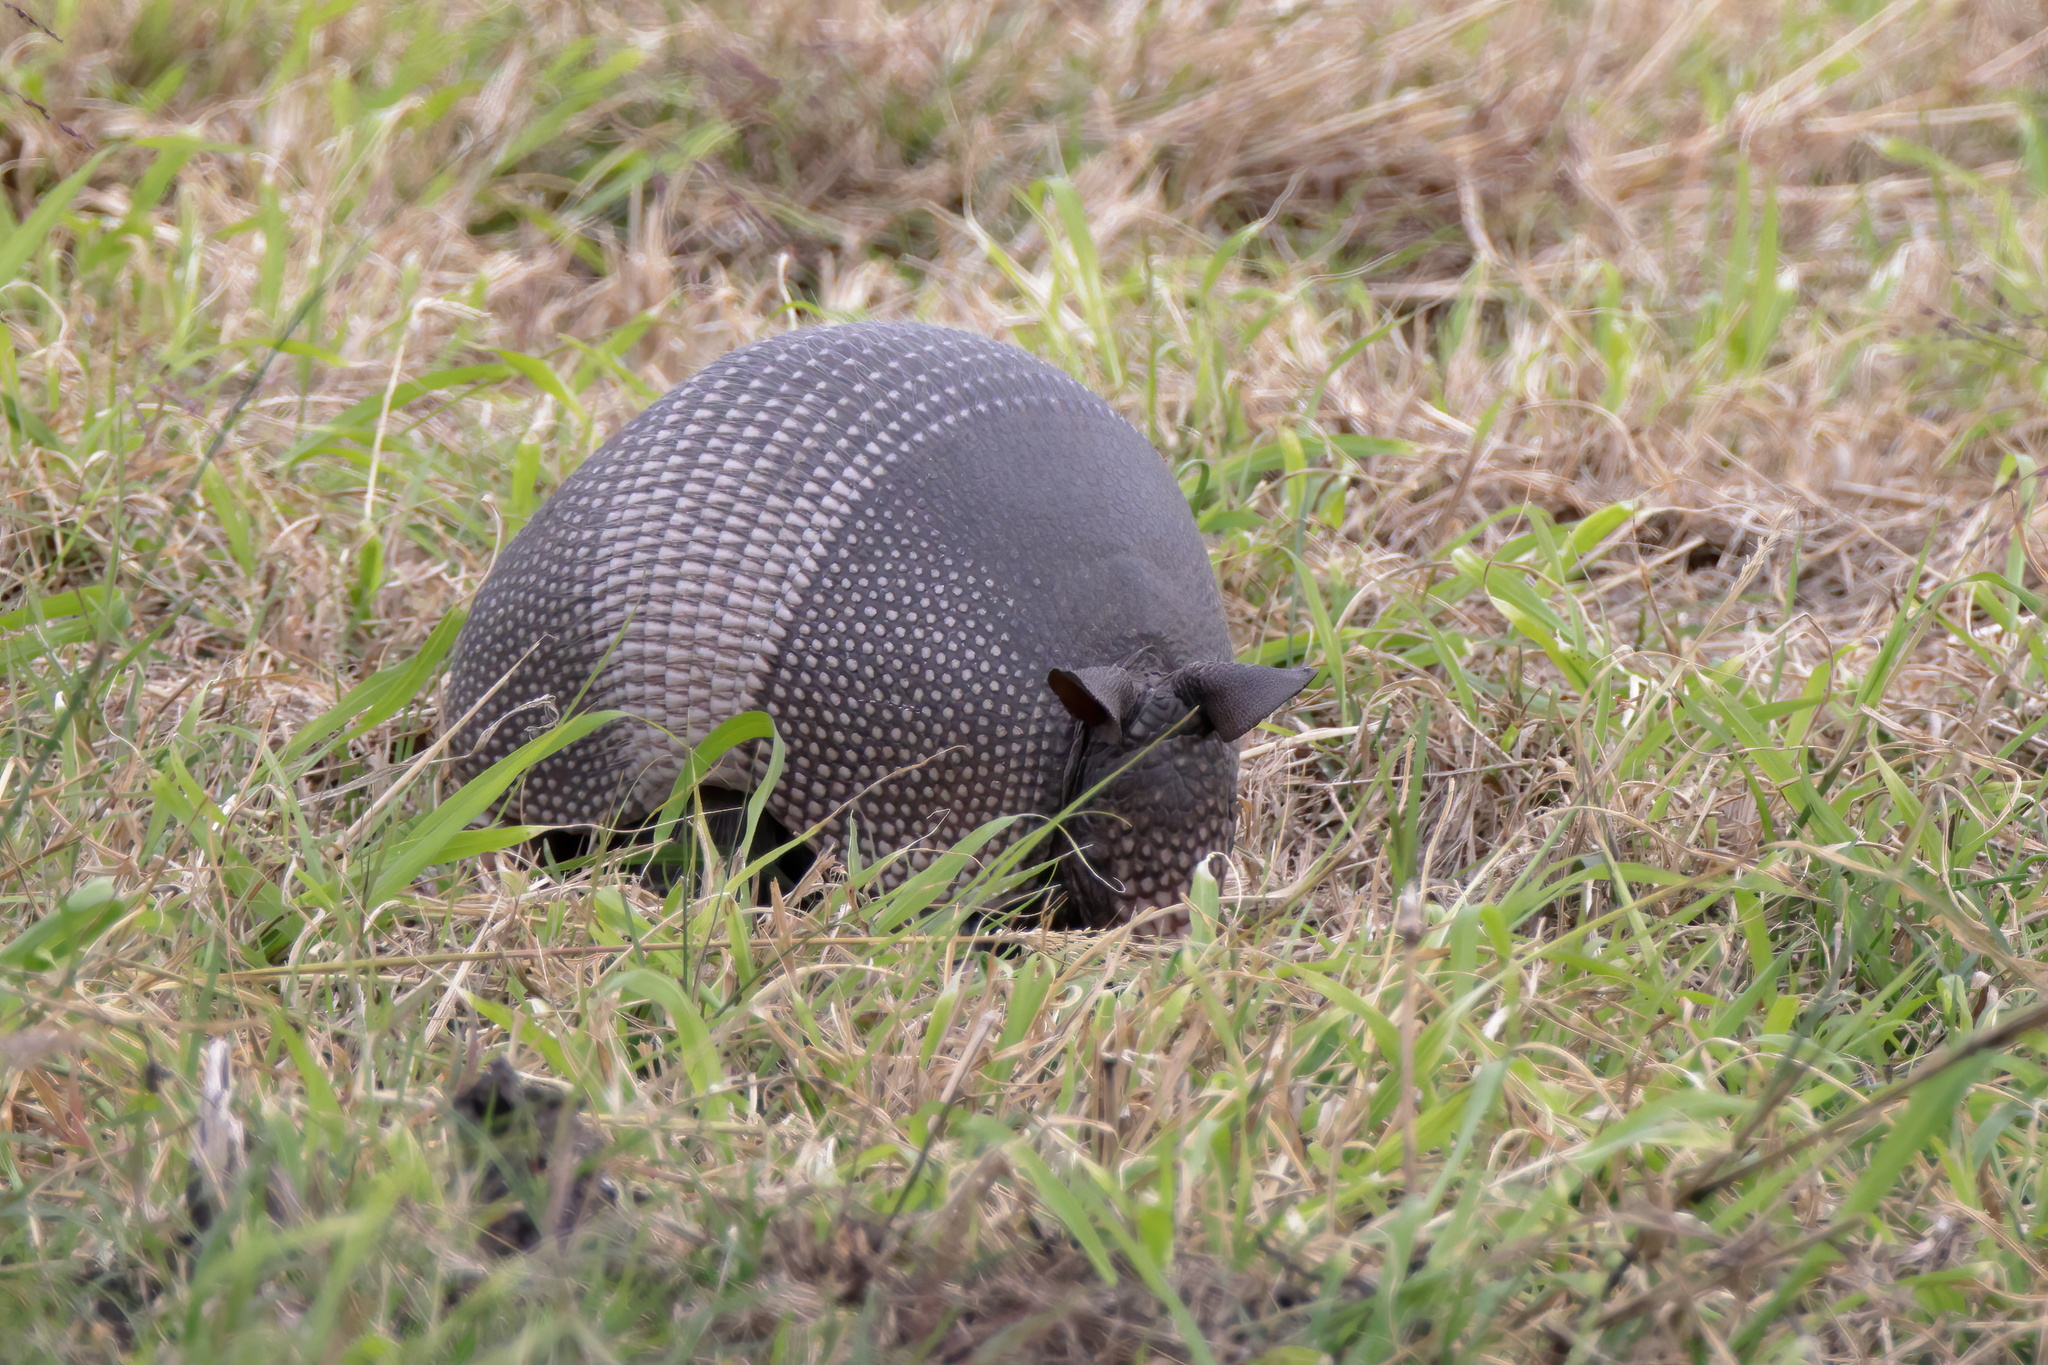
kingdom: Animalia
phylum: Chordata
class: Mammalia
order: Cingulata
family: Dasypodidae
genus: Dasypus
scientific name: Dasypus novemcinctus
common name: Nine-banded armadillo
